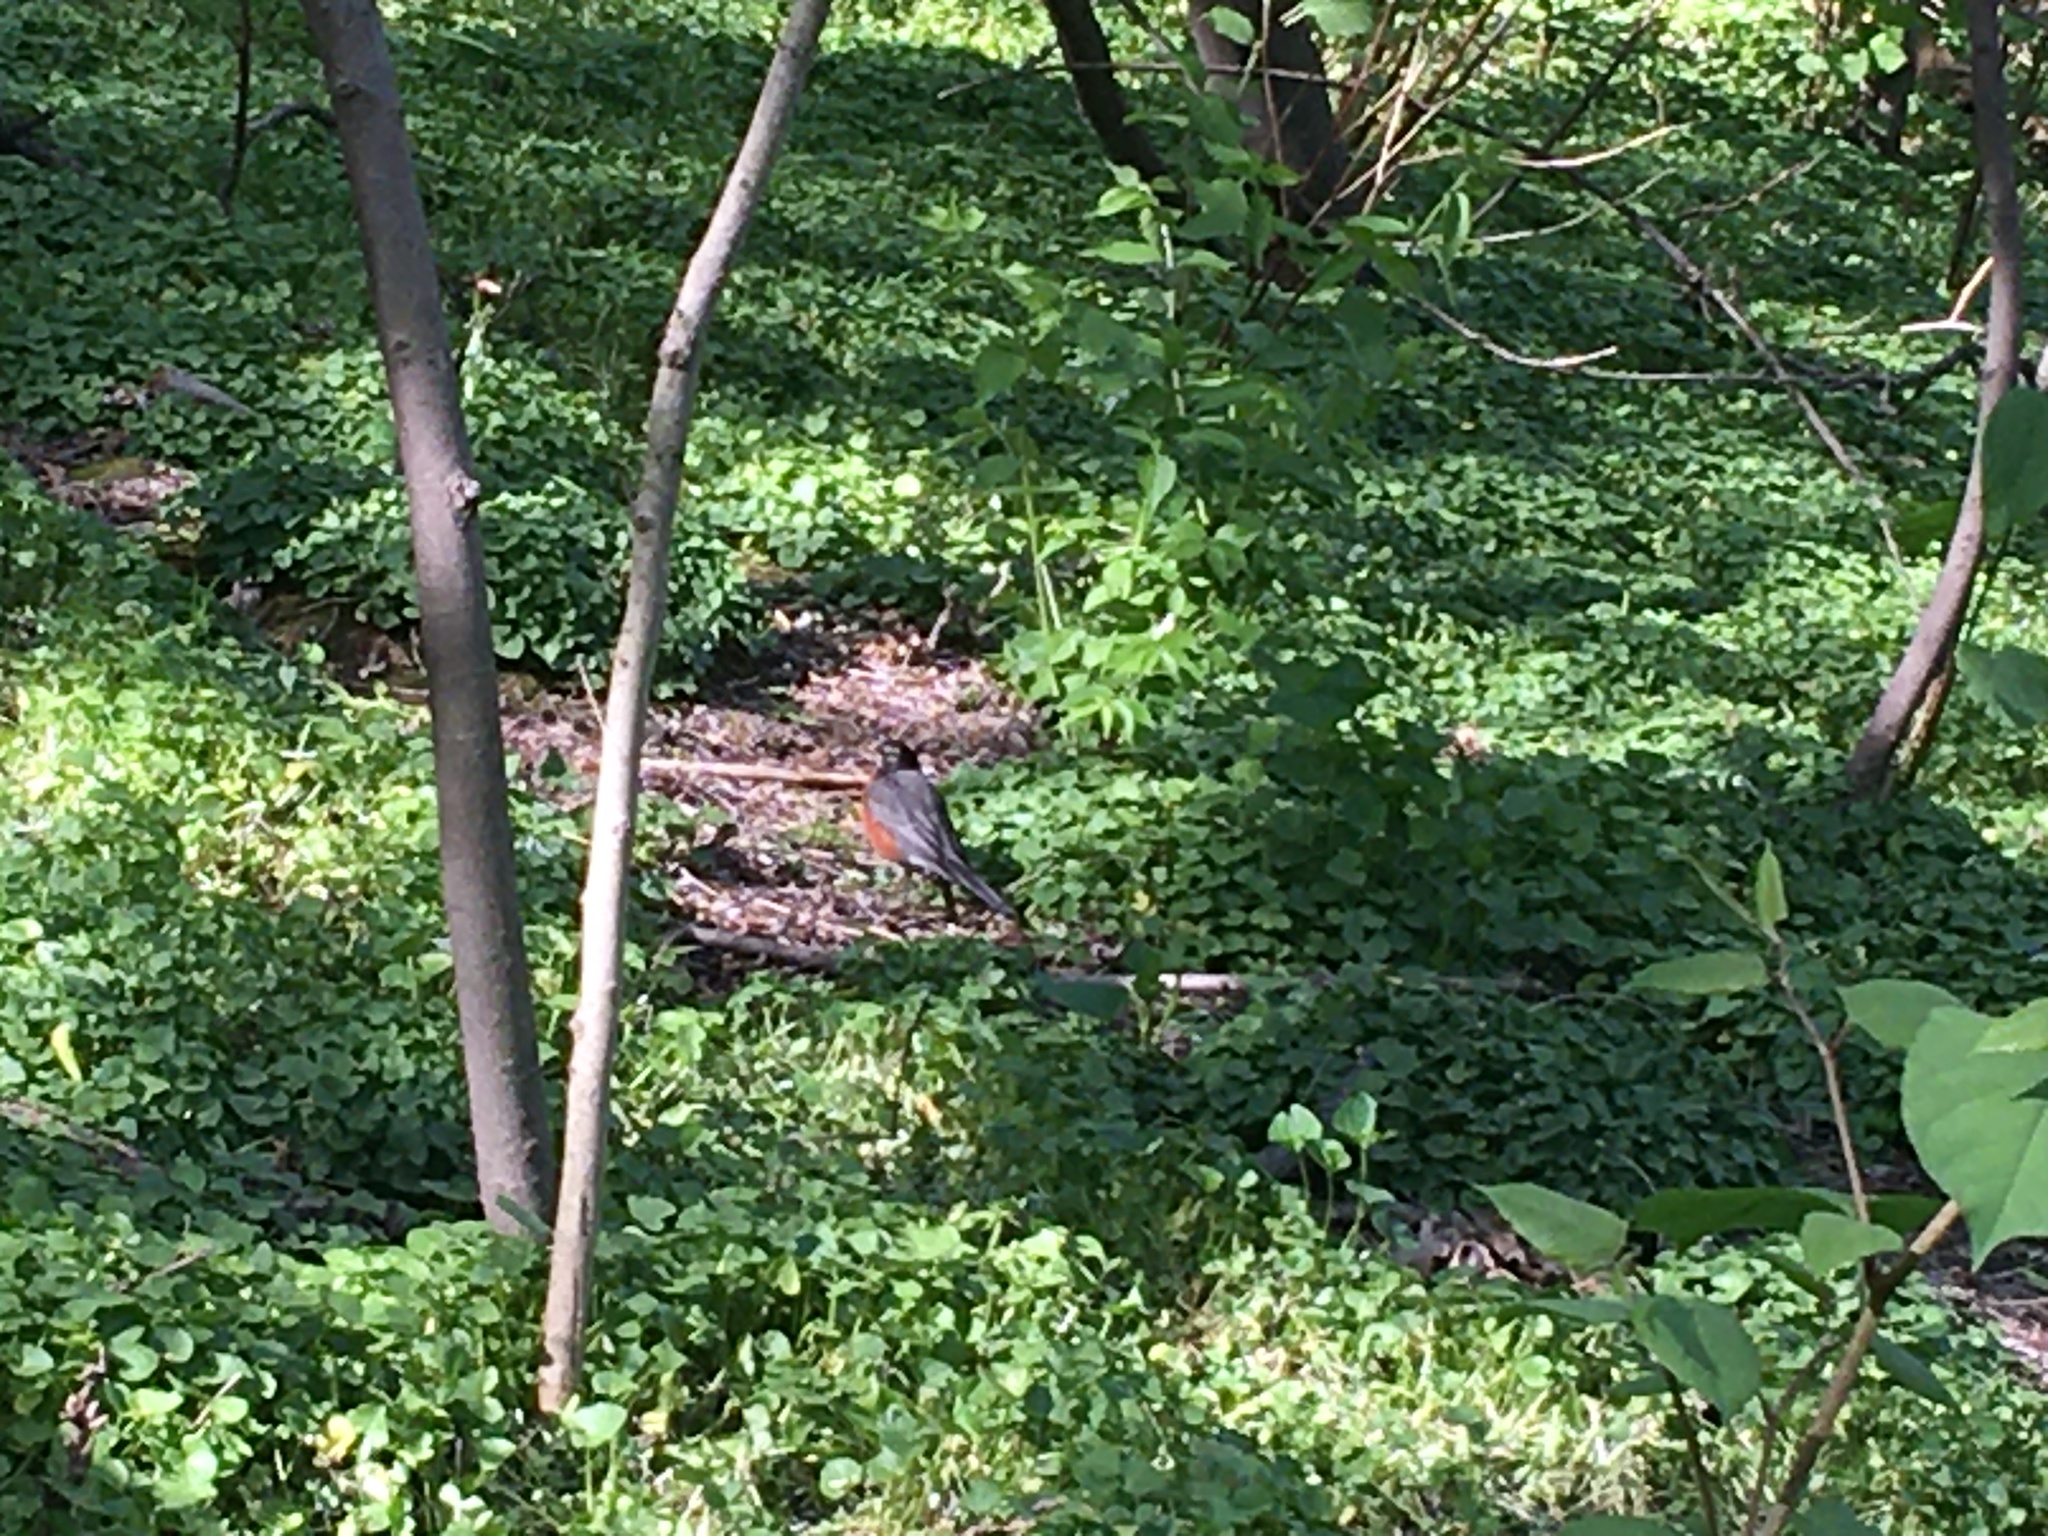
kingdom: Animalia
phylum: Chordata
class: Aves
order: Passeriformes
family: Turdidae
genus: Turdus
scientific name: Turdus migratorius
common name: American robin
